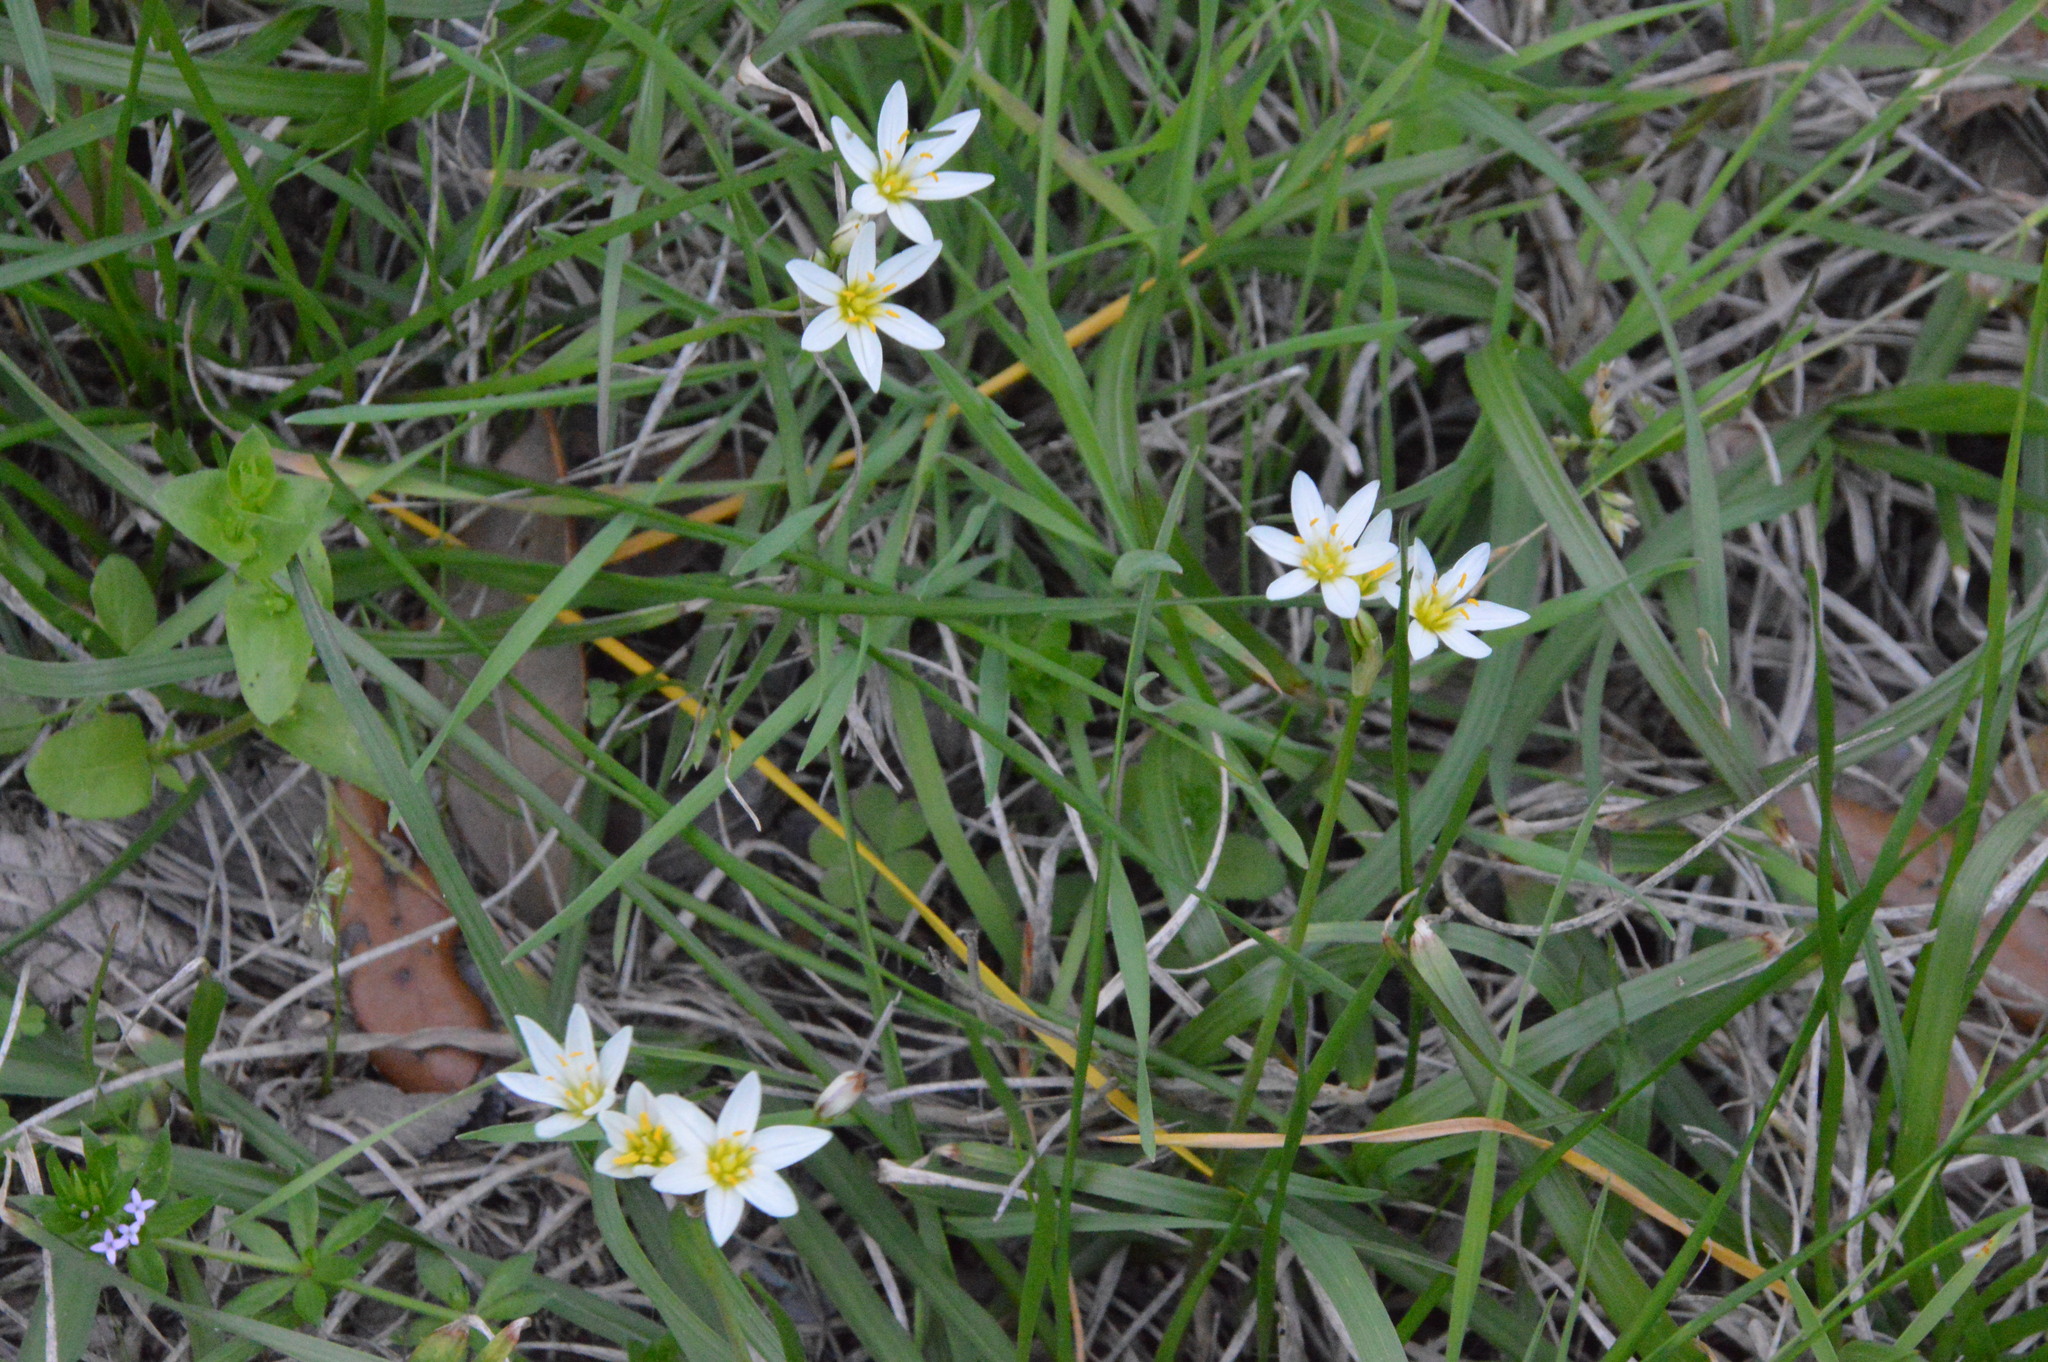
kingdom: Plantae
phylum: Tracheophyta
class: Liliopsida
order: Asparagales
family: Amaryllidaceae
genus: Nothoscordum
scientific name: Nothoscordum bivalve
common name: Crow-poison
